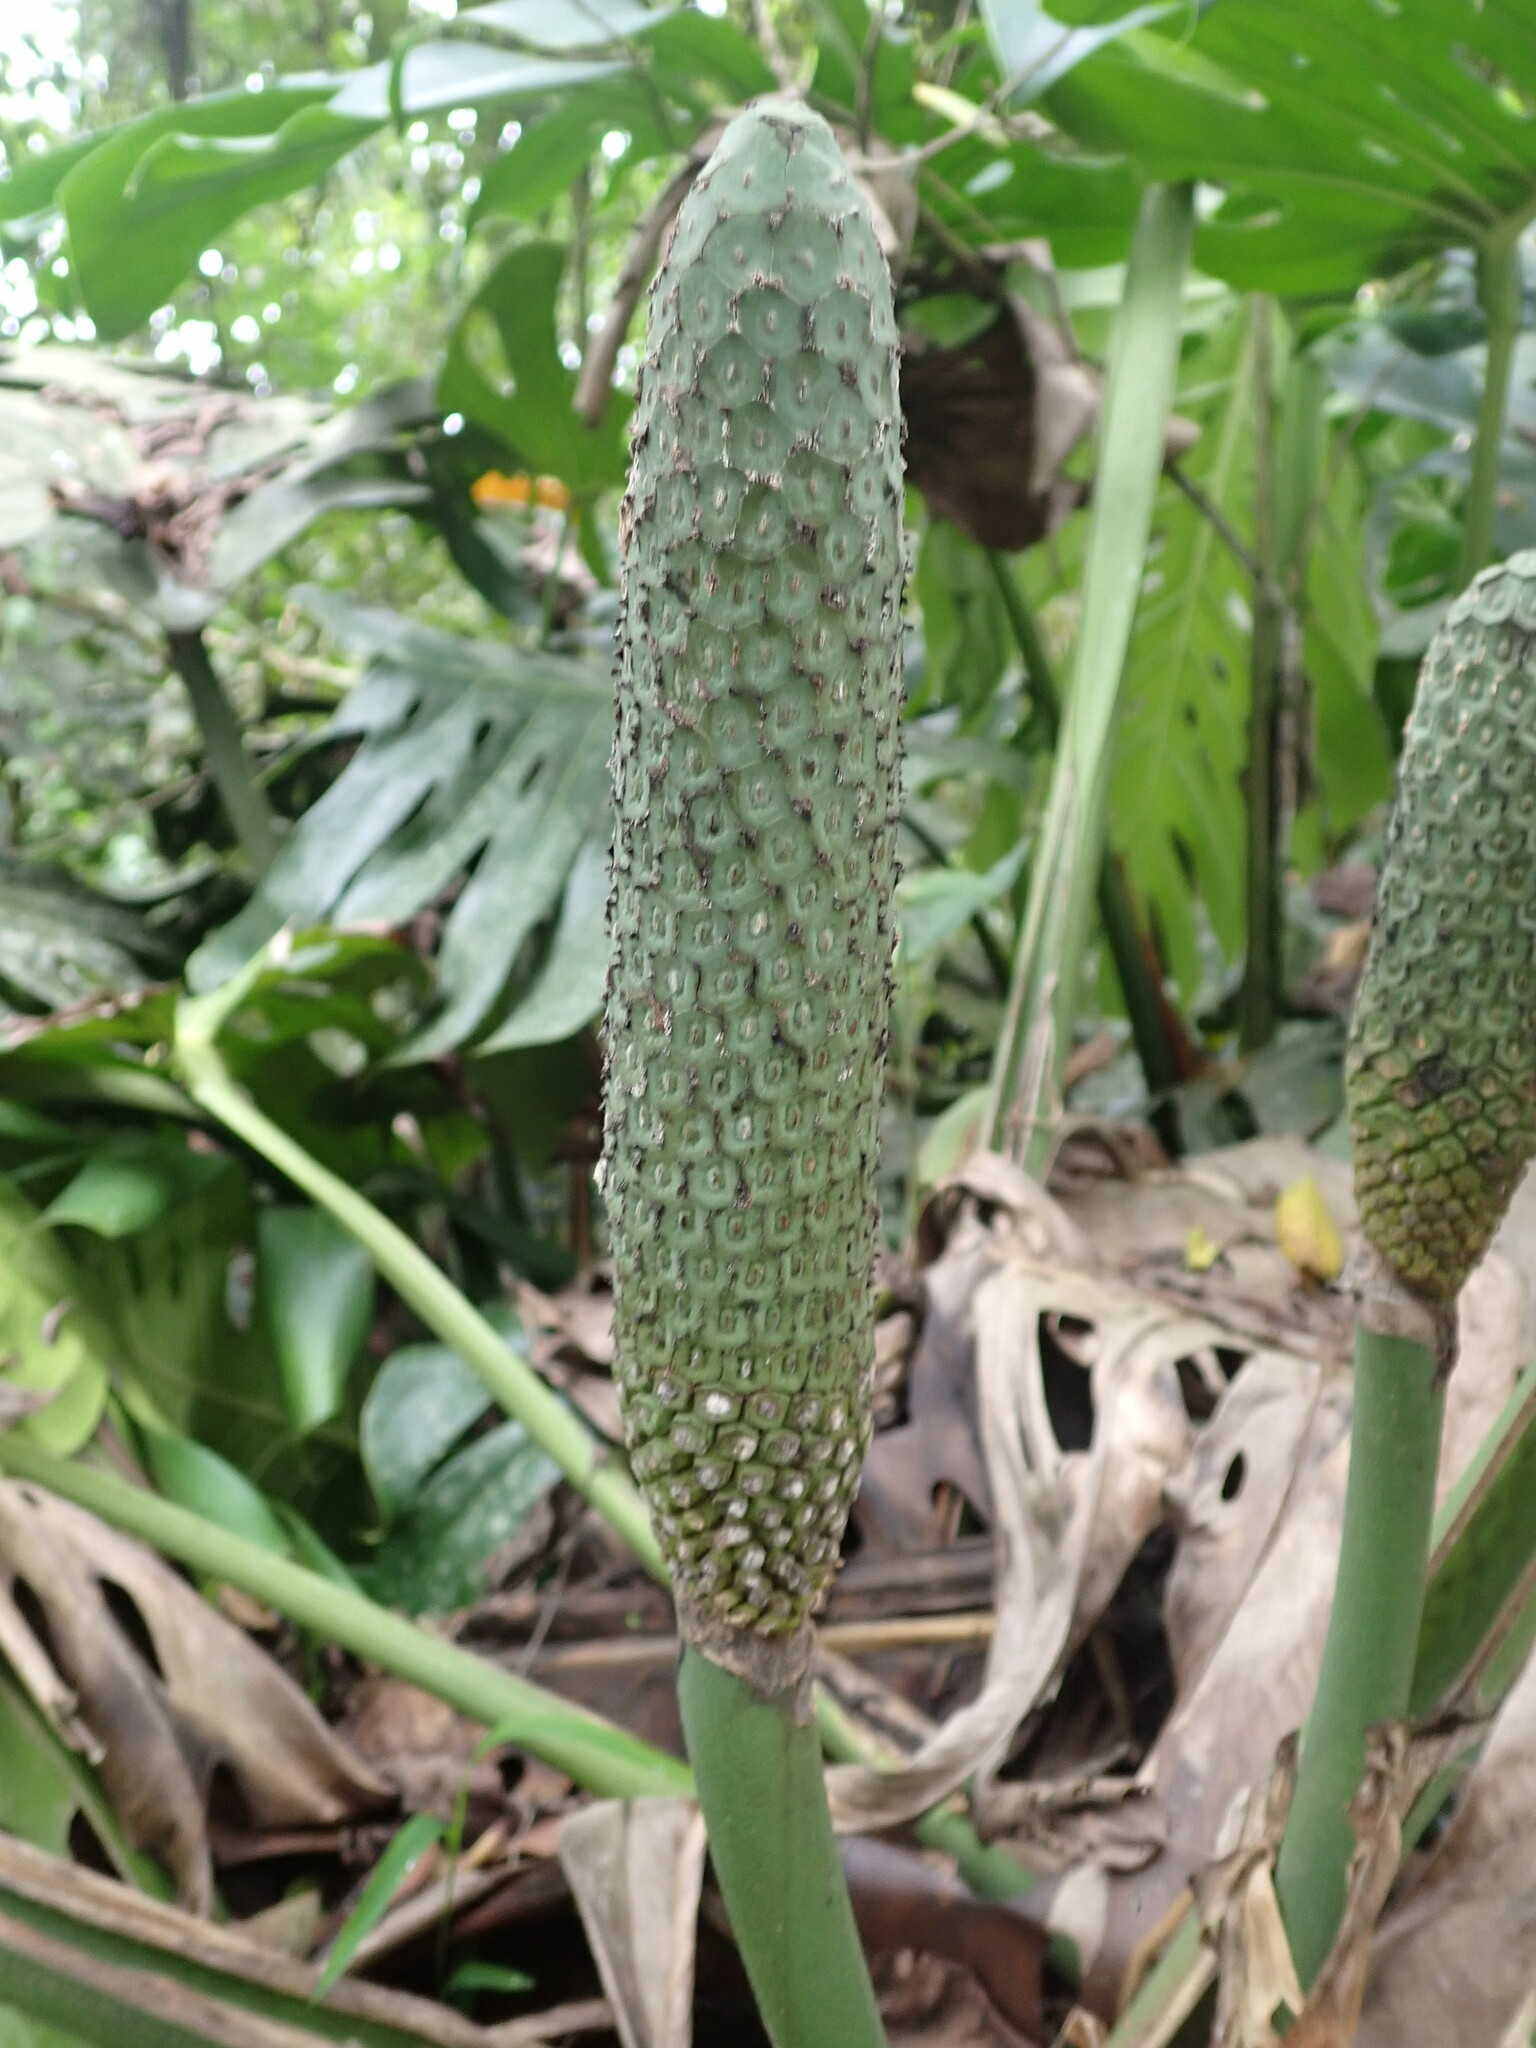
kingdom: Plantae
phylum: Tracheophyta
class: Liliopsida
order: Alismatales
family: Araceae
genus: Monstera
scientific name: Monstera deliciosa
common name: Cut-leaf-philodendron
